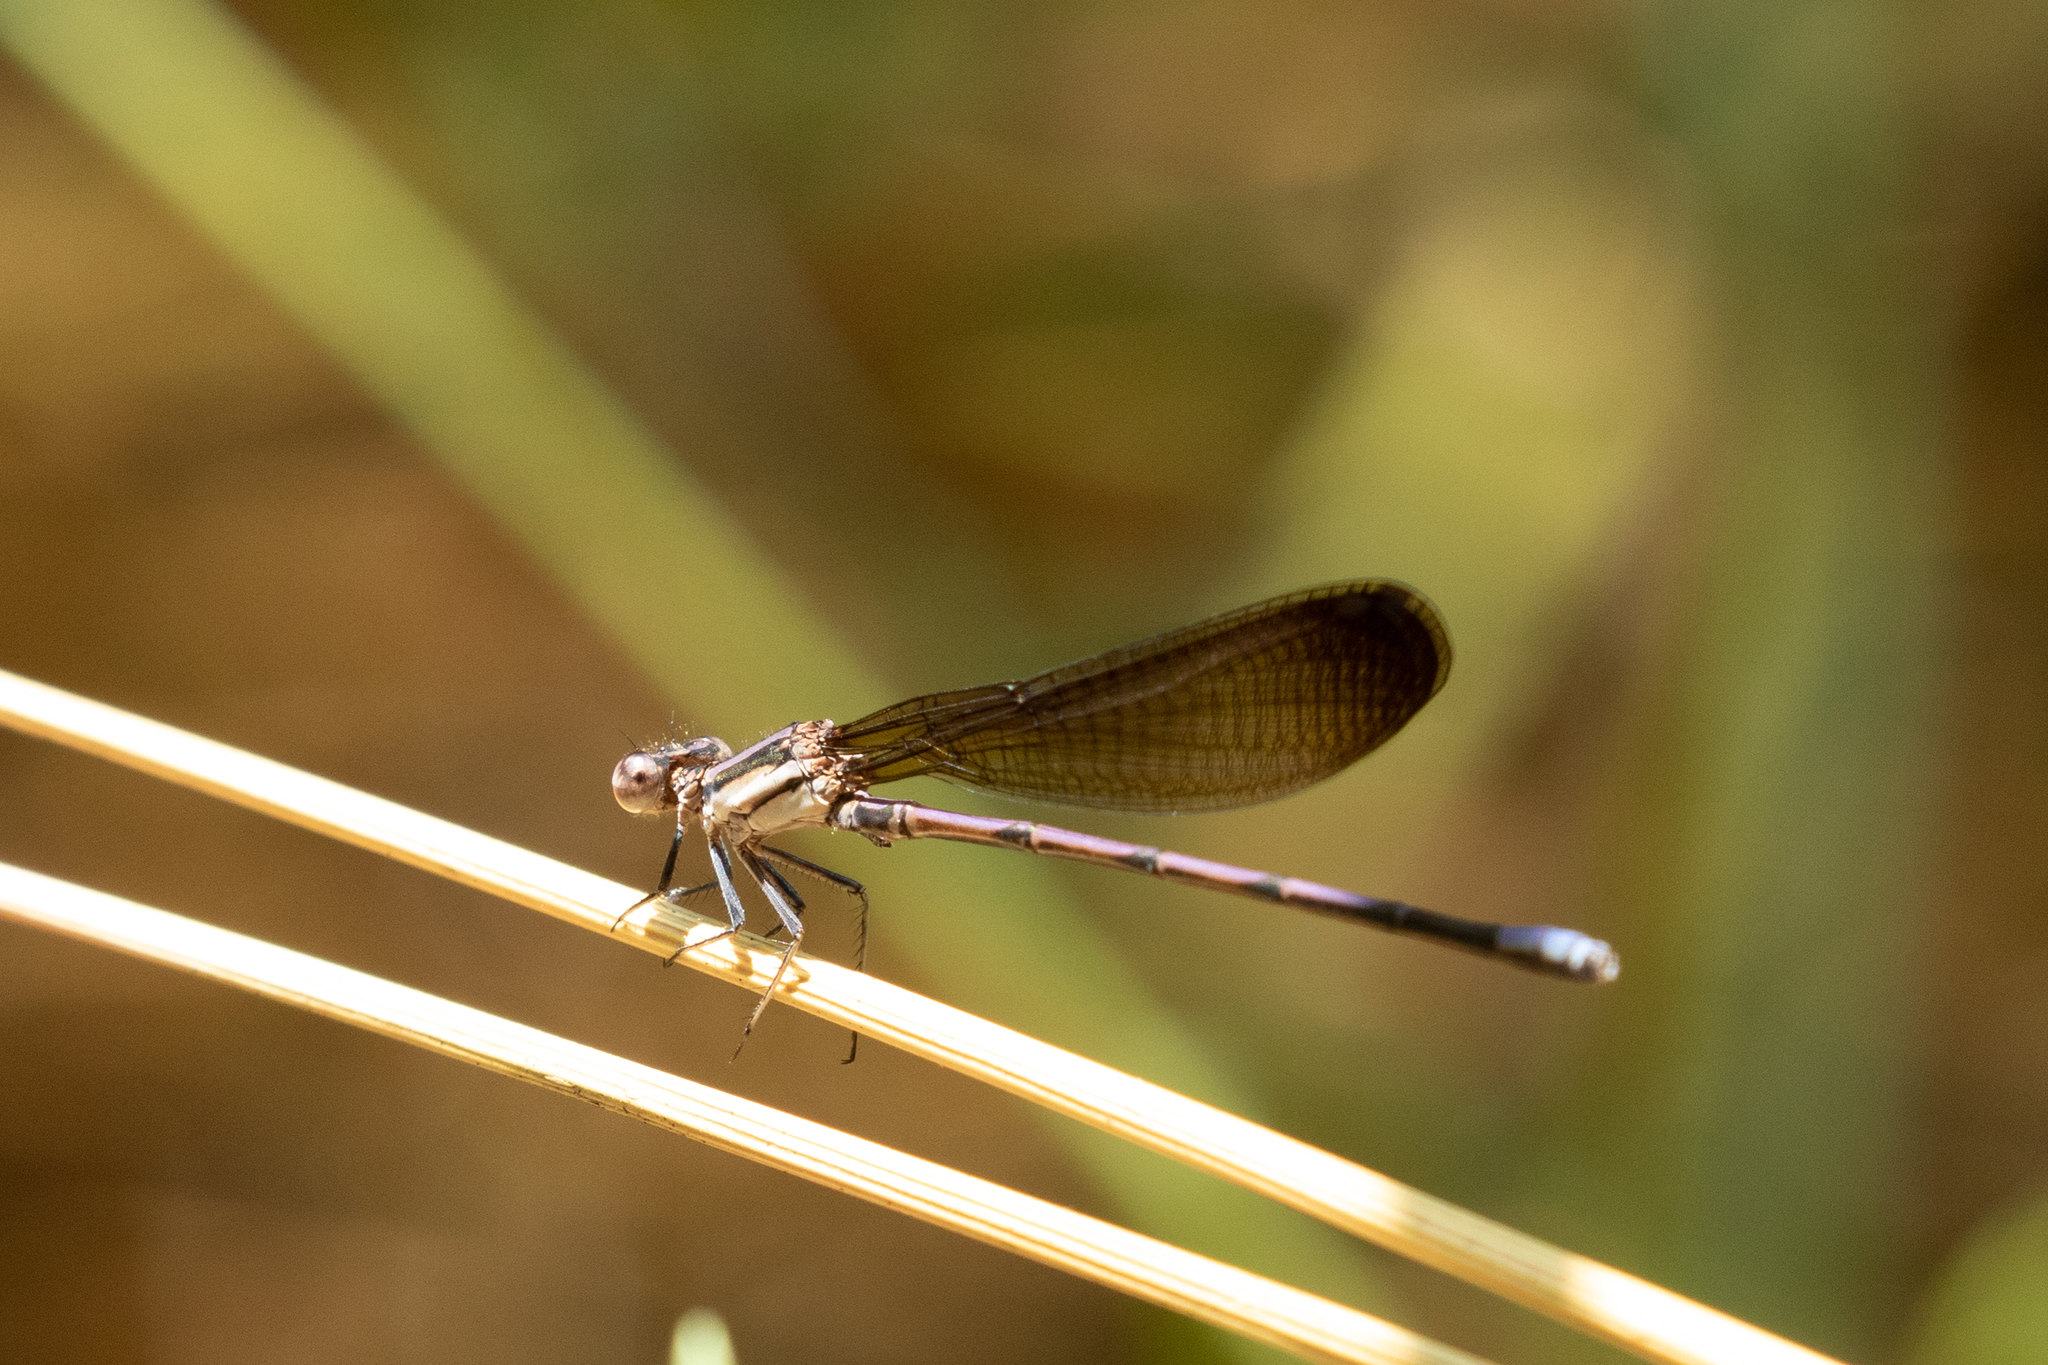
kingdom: Animalia
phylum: Arthropoda
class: Insecta
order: Odonata
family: Coenagrionidae
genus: Argia
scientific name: Argia fumipennis
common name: Variable dancer
